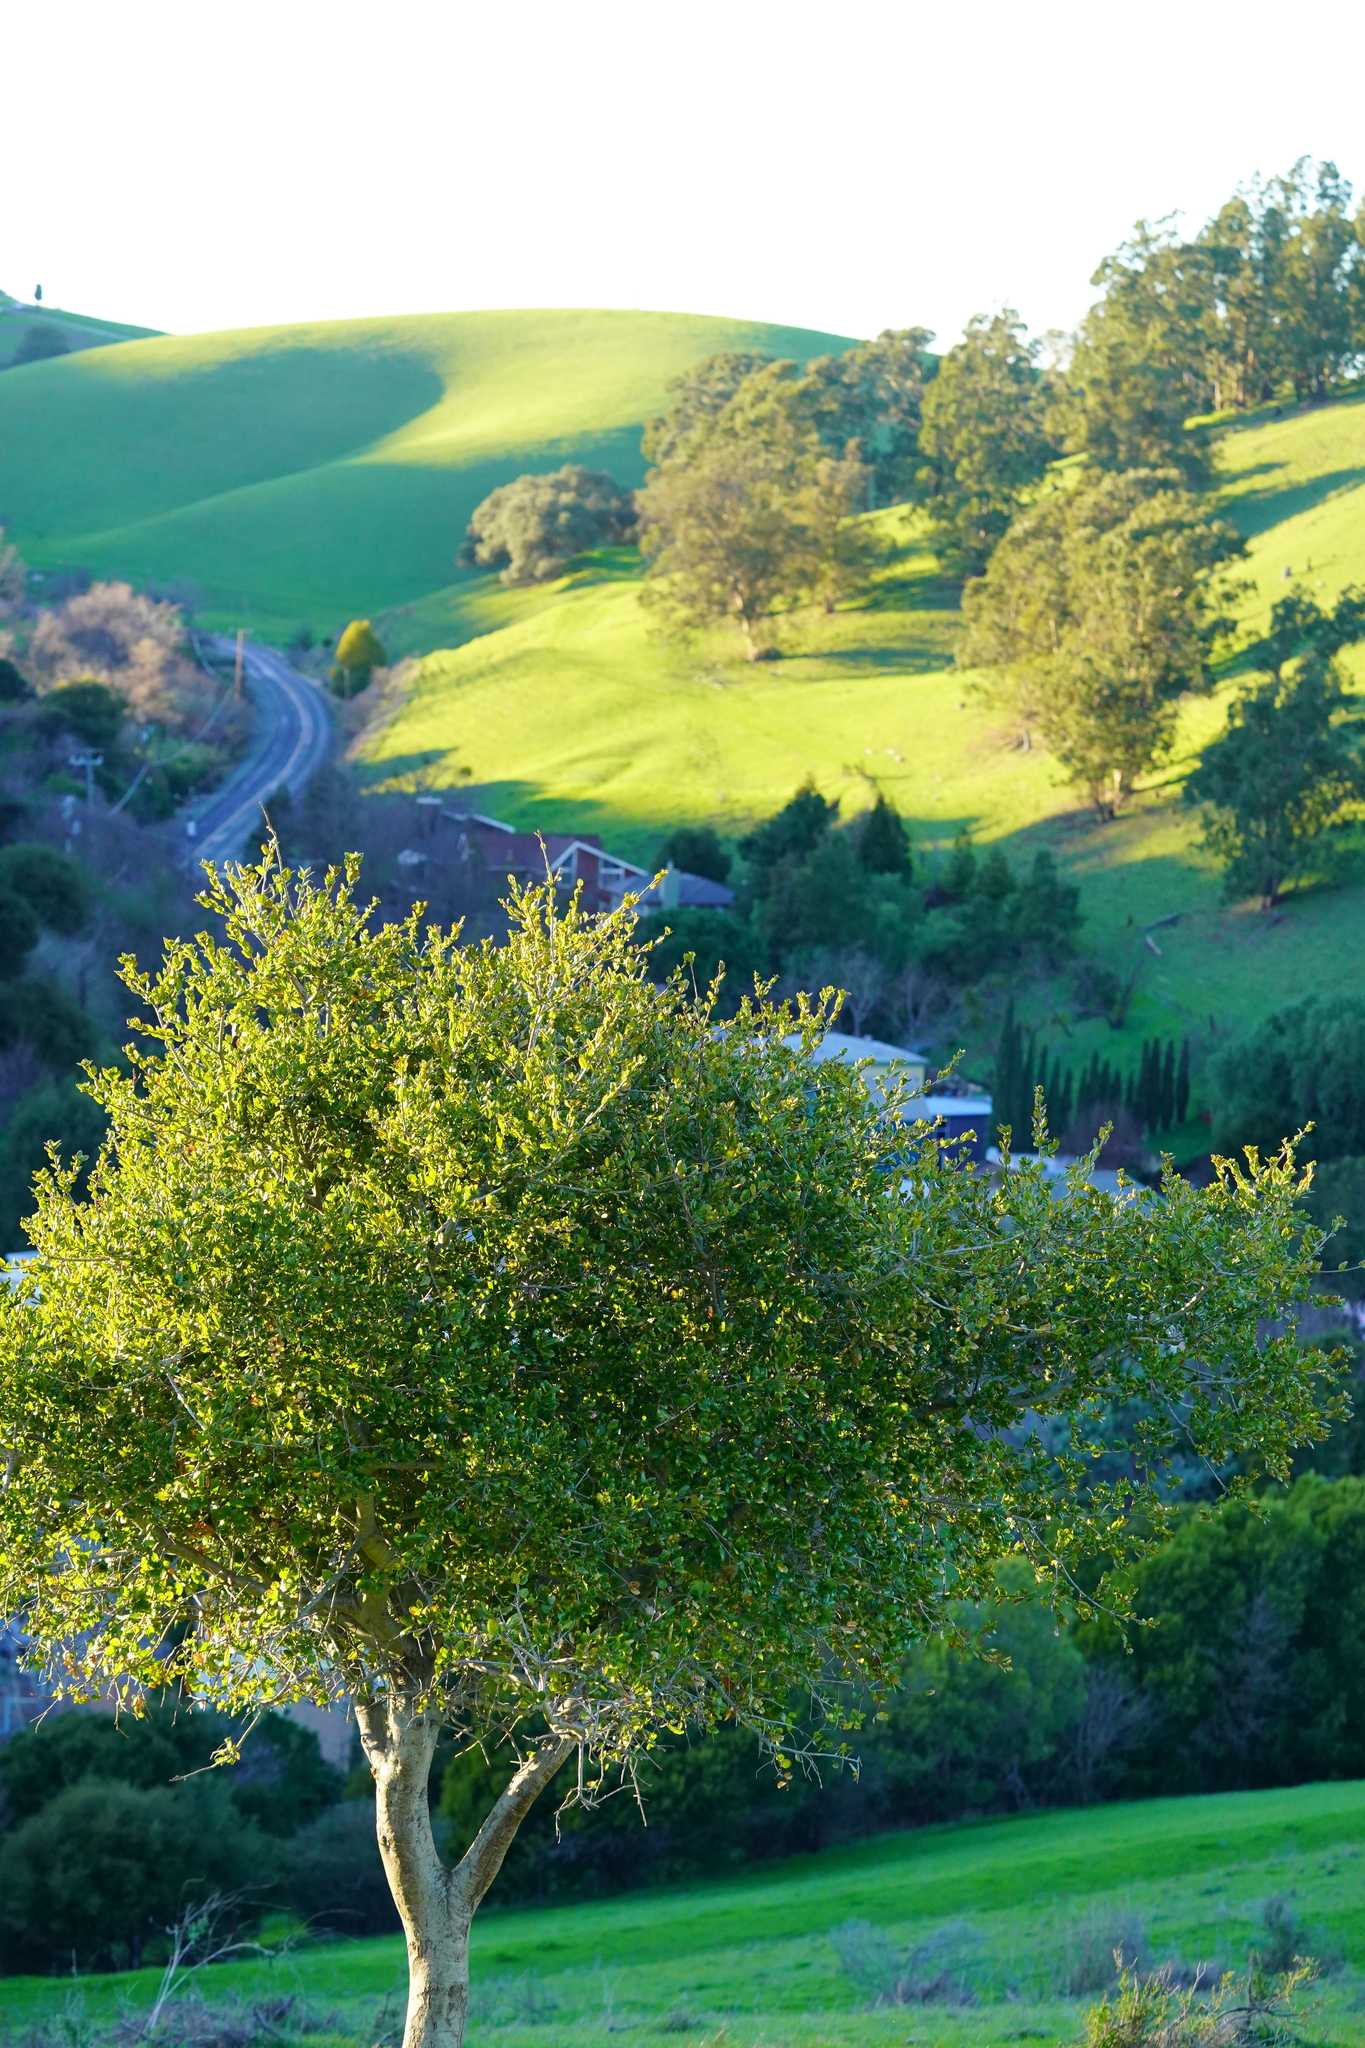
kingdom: Plantae
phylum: Tracheophyta
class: Magnoliopsida
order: Fagales
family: Fagaceae
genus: Quercus
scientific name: Quercus agrifolia
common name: California live oak
